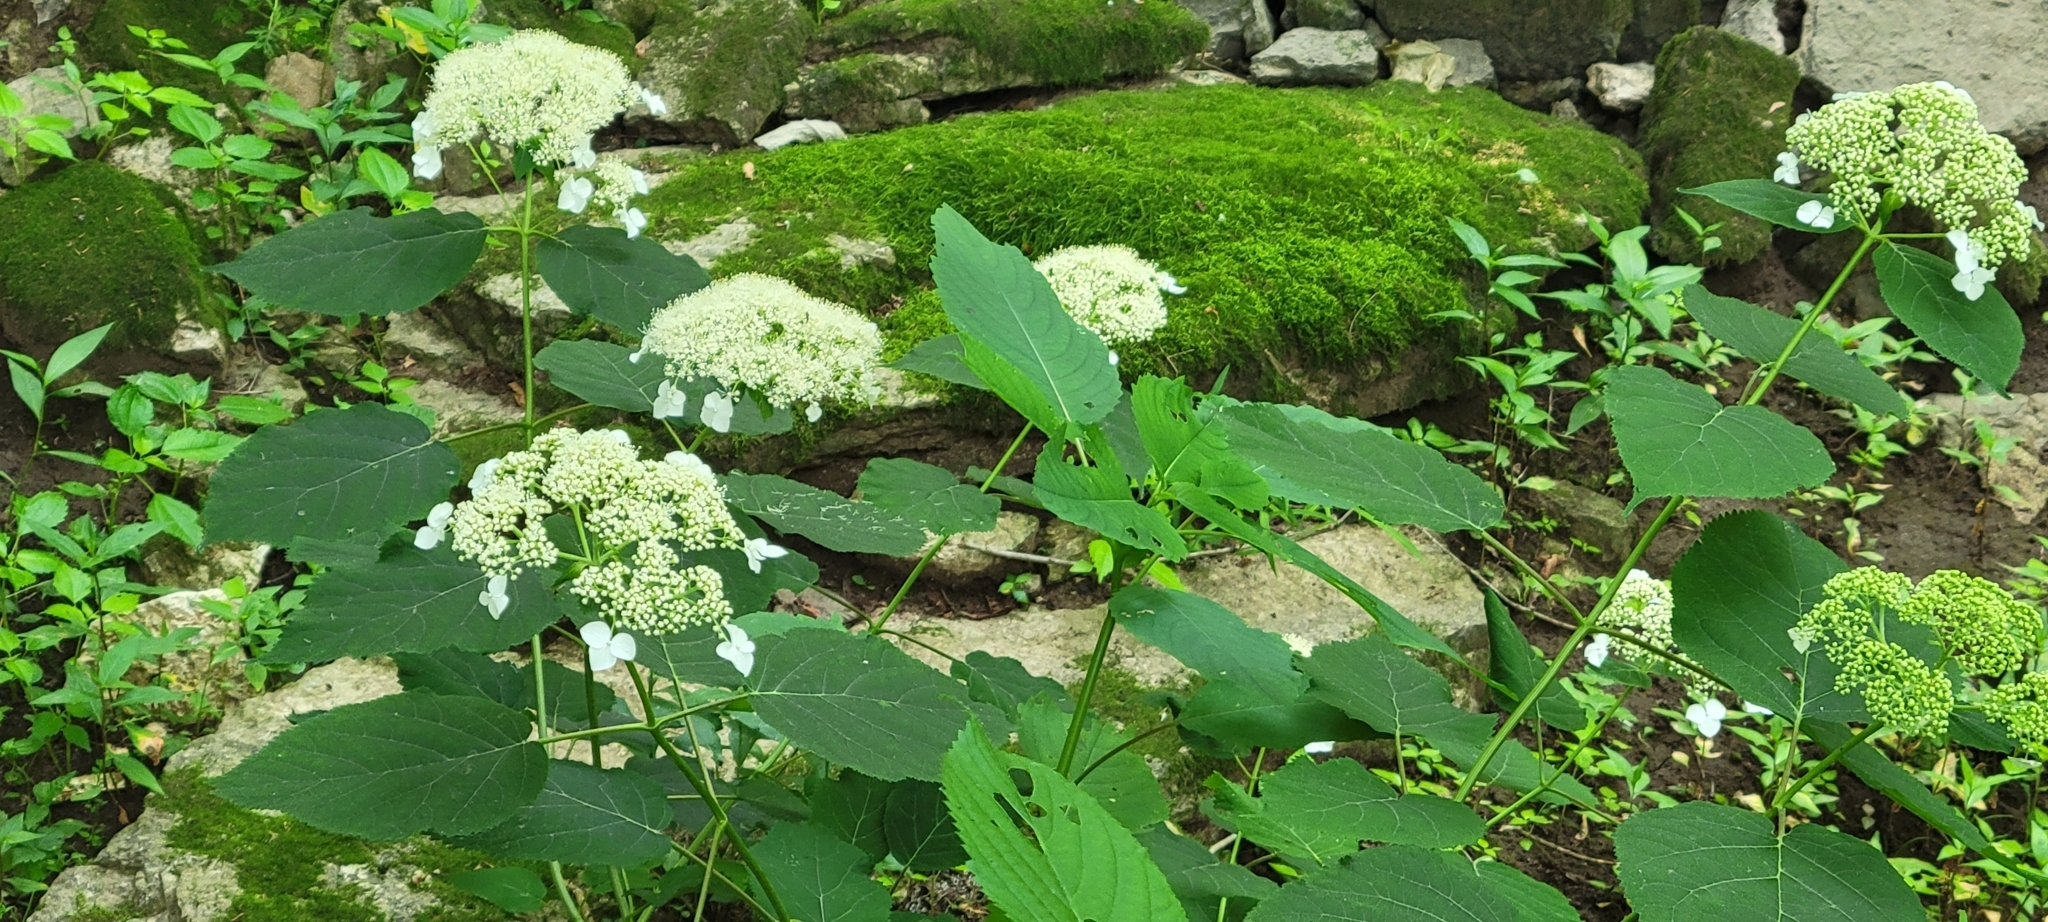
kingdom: Plantae
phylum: Tracheophyta
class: Magnoliopsida
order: Cornales
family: Hydrangeaceae
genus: Hydrangea
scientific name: Hydrangea arborescens
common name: Sevenbark
